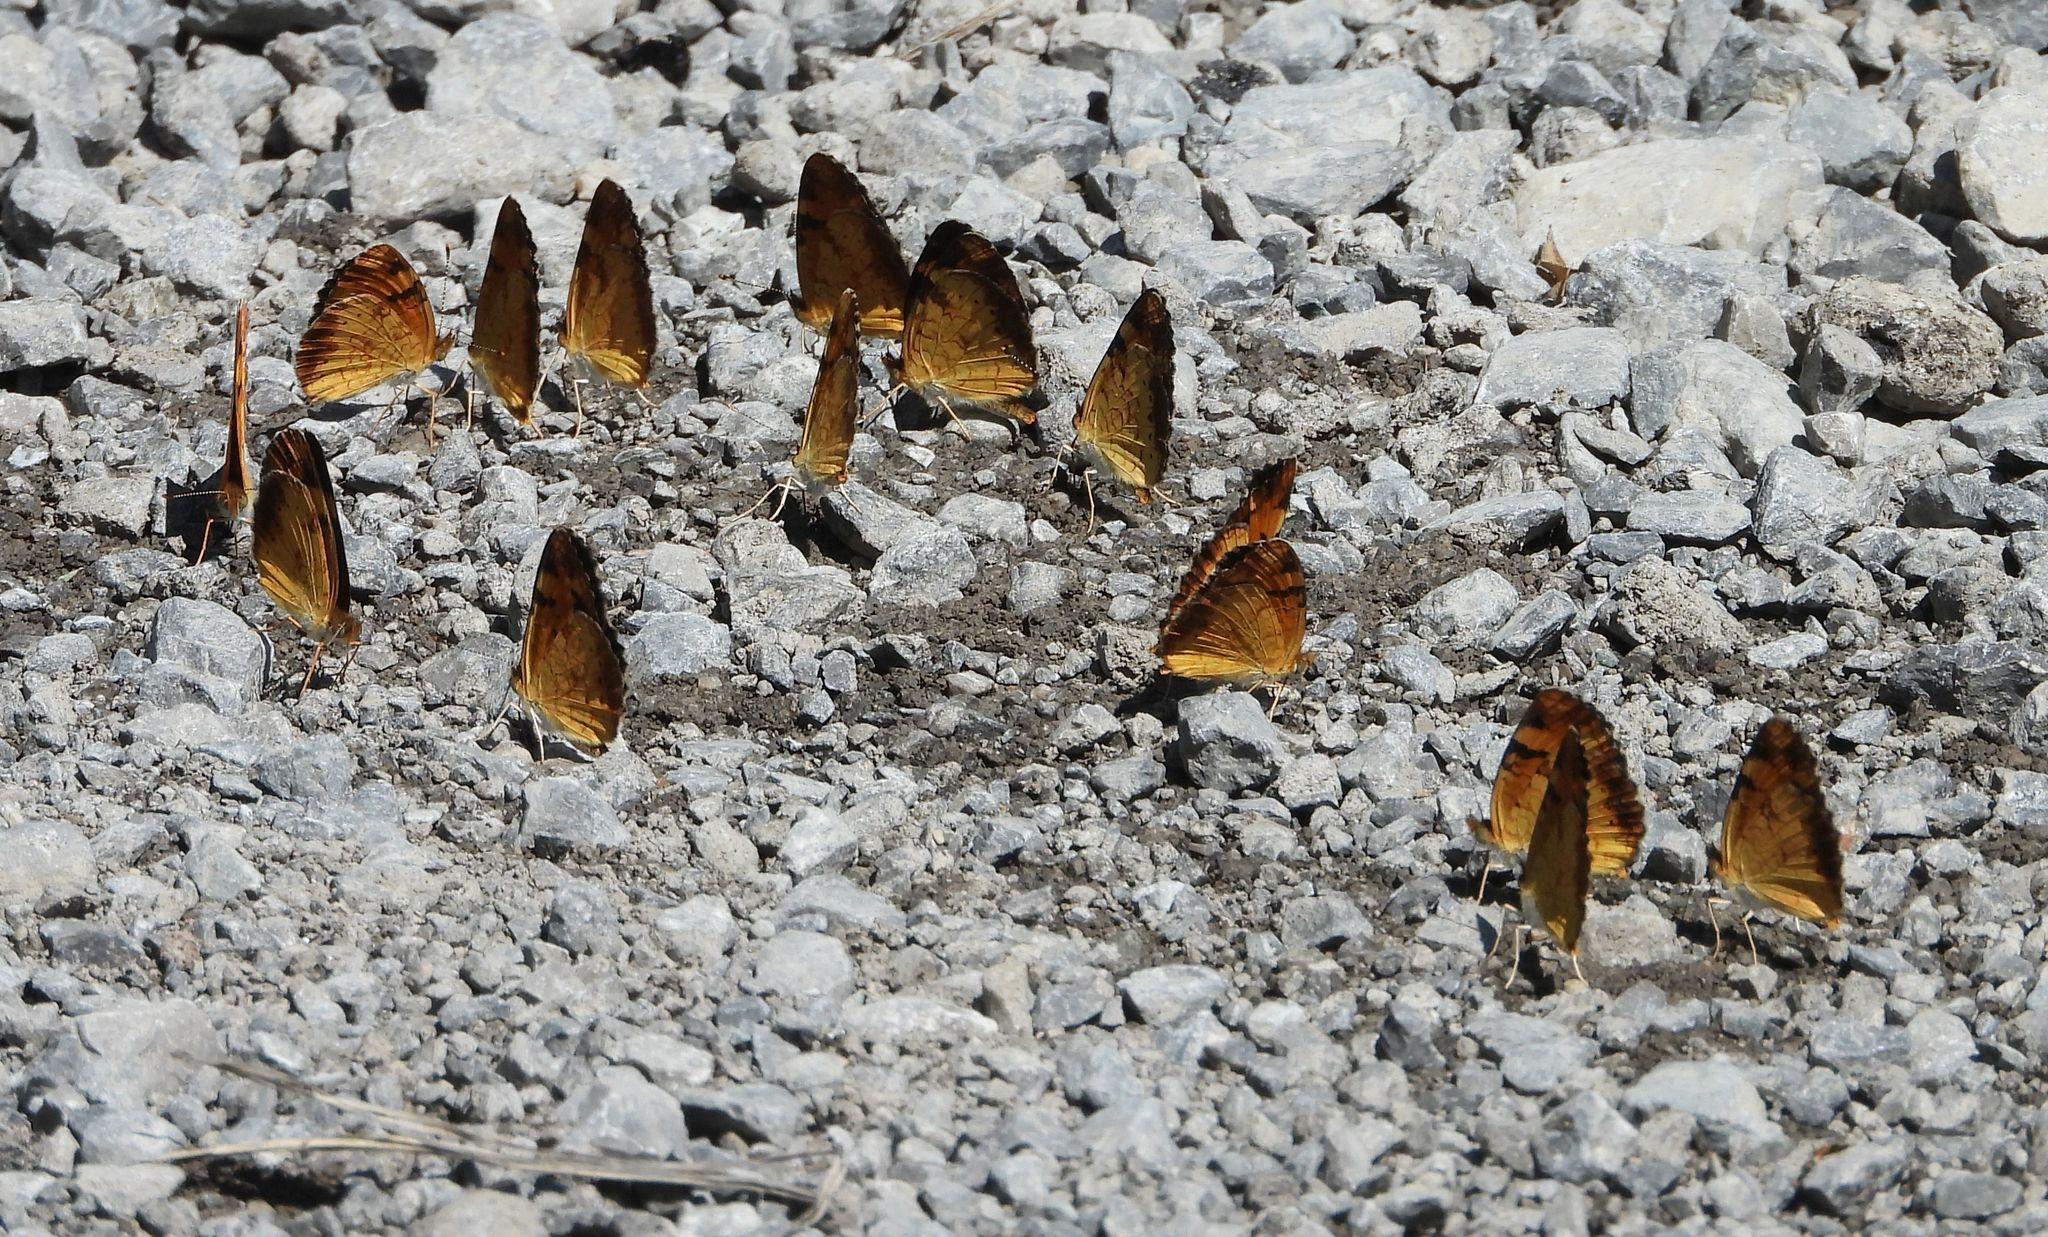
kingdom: Animalia
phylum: Arthropoda
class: Insecta
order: Lepidoptera
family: Nymphalidae
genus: Phyciodes
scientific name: Phyciodes tharos
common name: Pearl crescent
